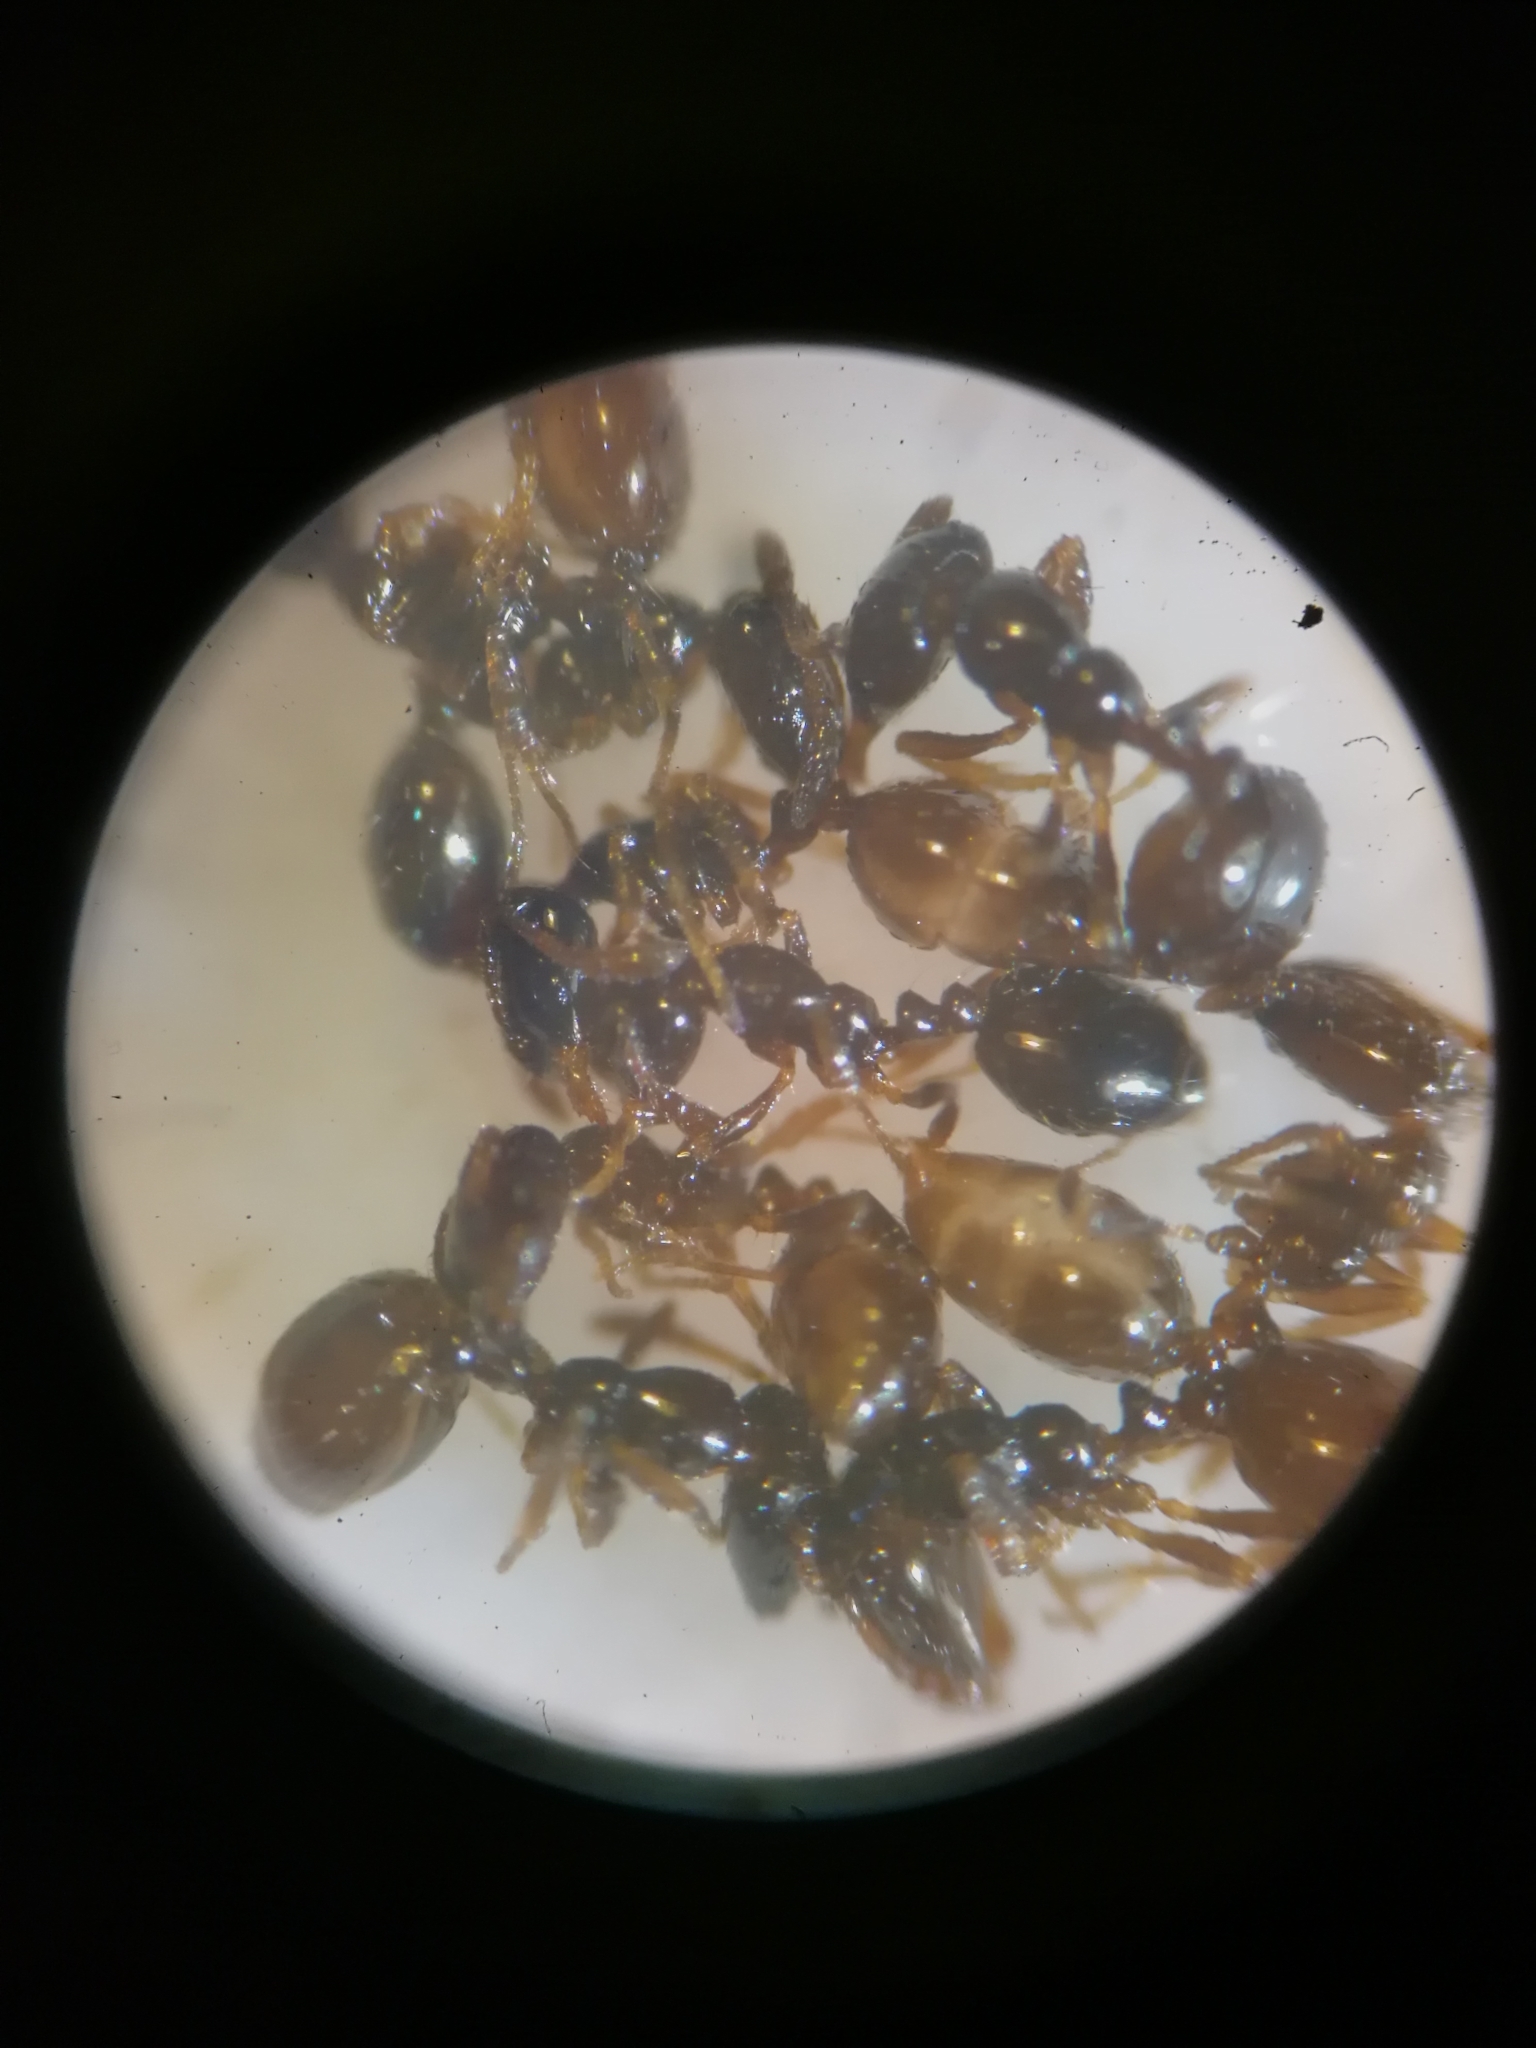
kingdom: Animalia
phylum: Arthropoda
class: Insecta
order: Hymenoptera
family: Formicidae
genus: Monomorium
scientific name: Monomorium monomorium
